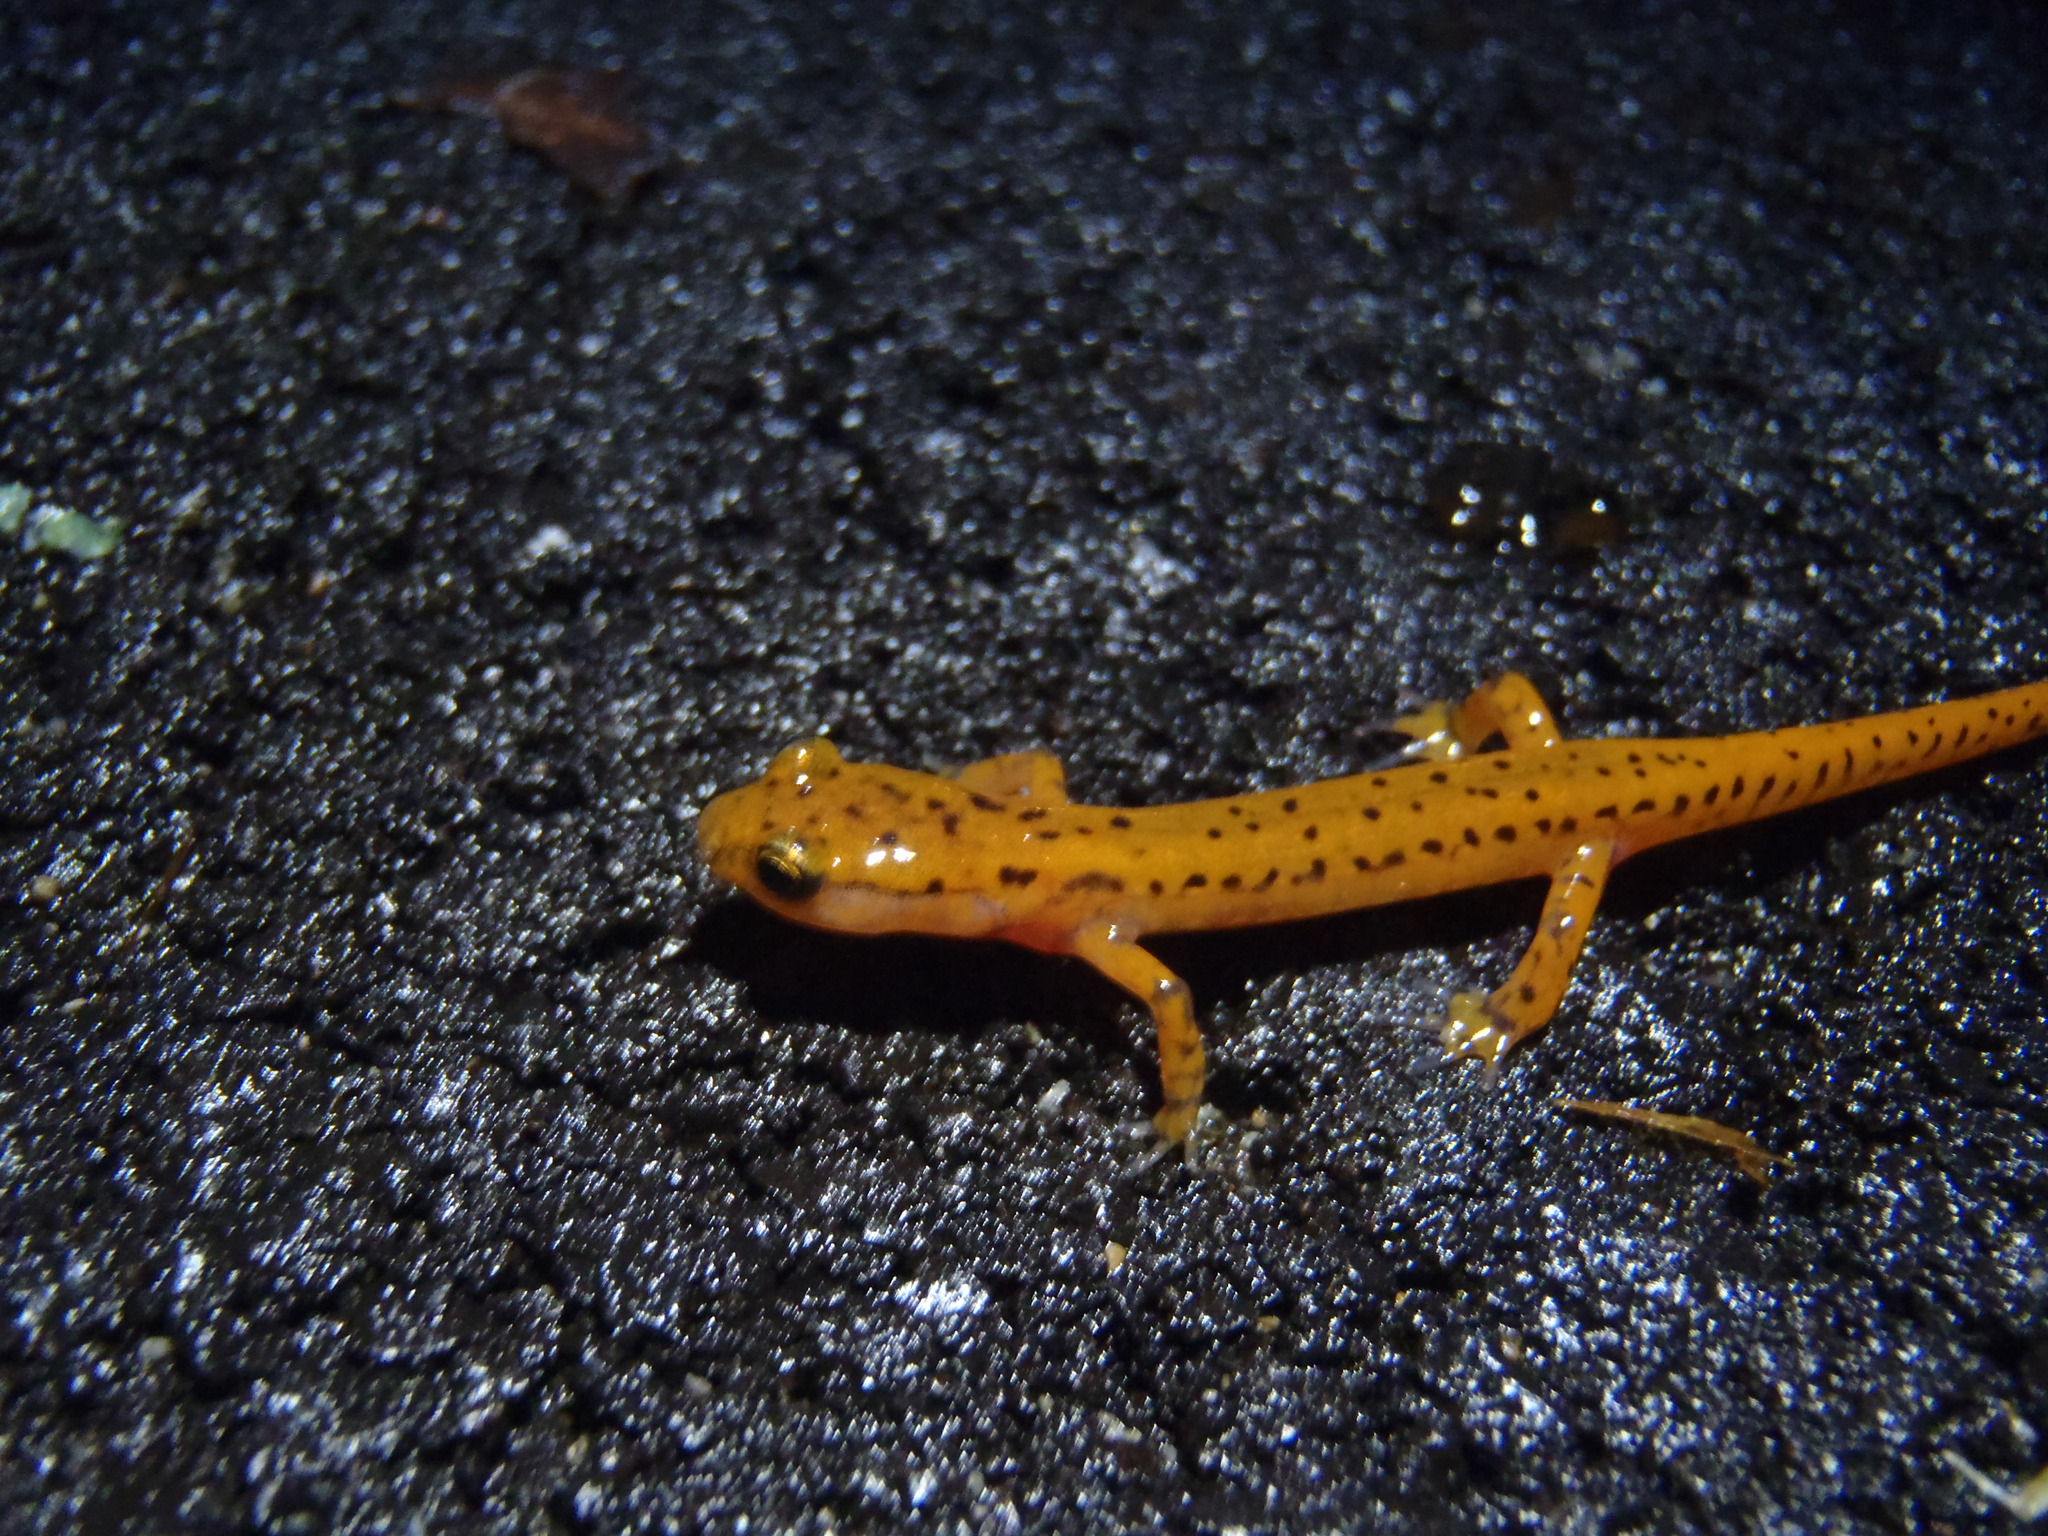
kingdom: Animalia
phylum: Chordata
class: Amphibia
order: Caudata
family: Plethodontidae
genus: Eurycea
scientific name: Eurycea lucifuga
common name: Cave salamander
